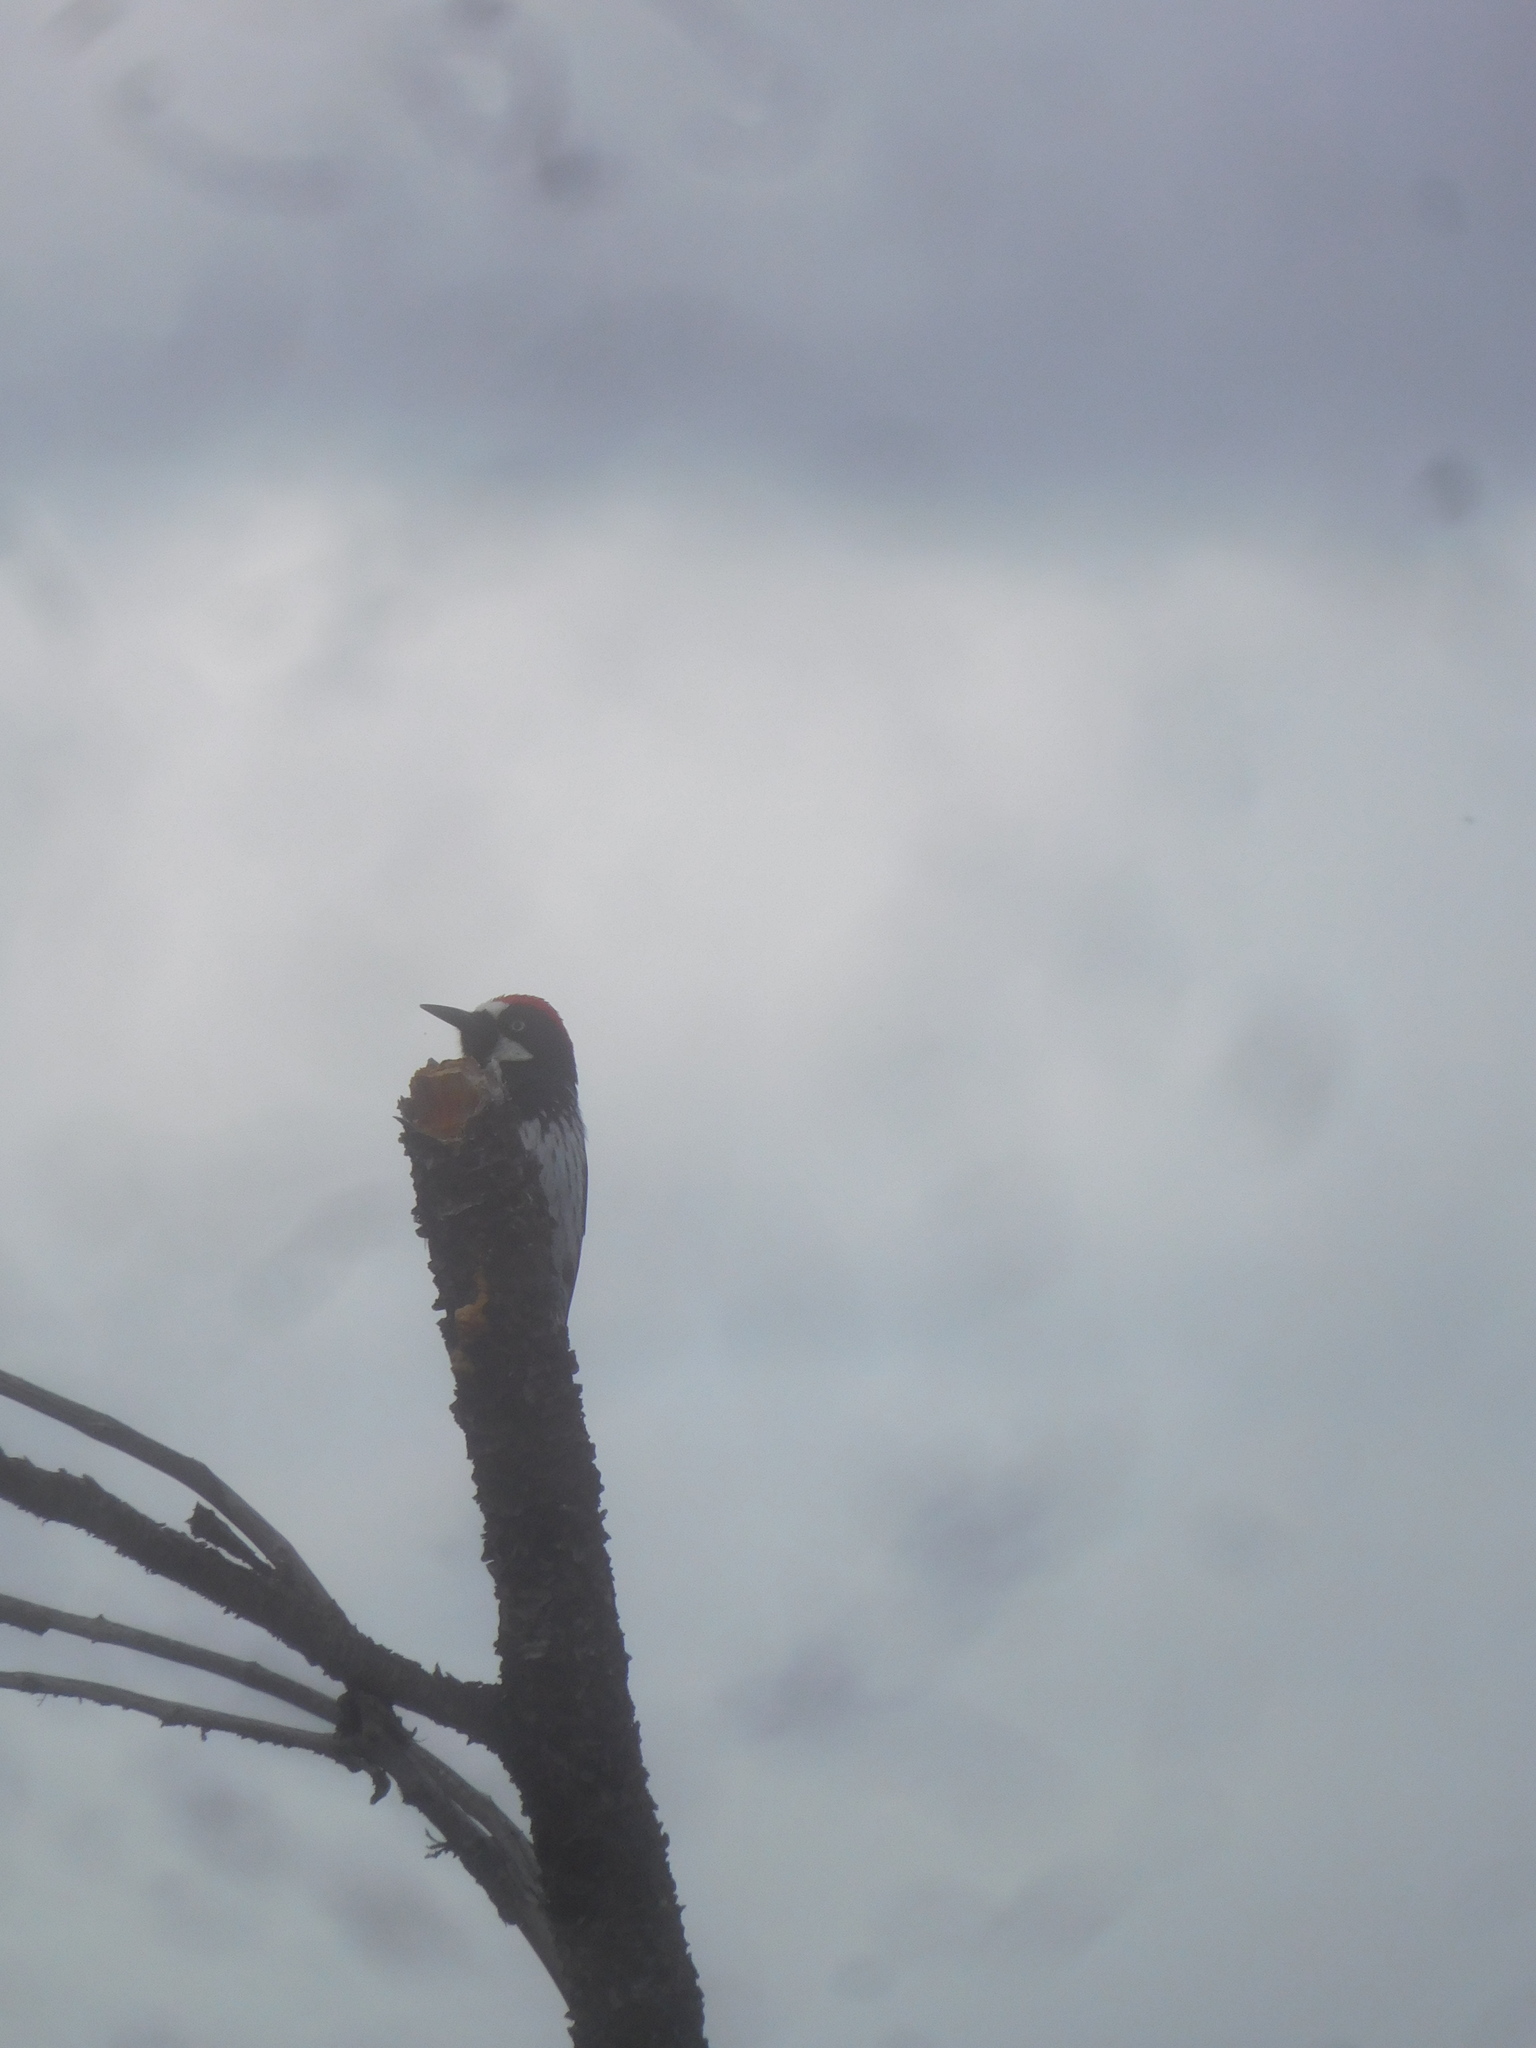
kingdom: Animalia
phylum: Chordata
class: Aves
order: Piciformes
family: Picidae
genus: Melanerpes
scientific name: Melanerpes formicivorus
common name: Acorn woodpecker
